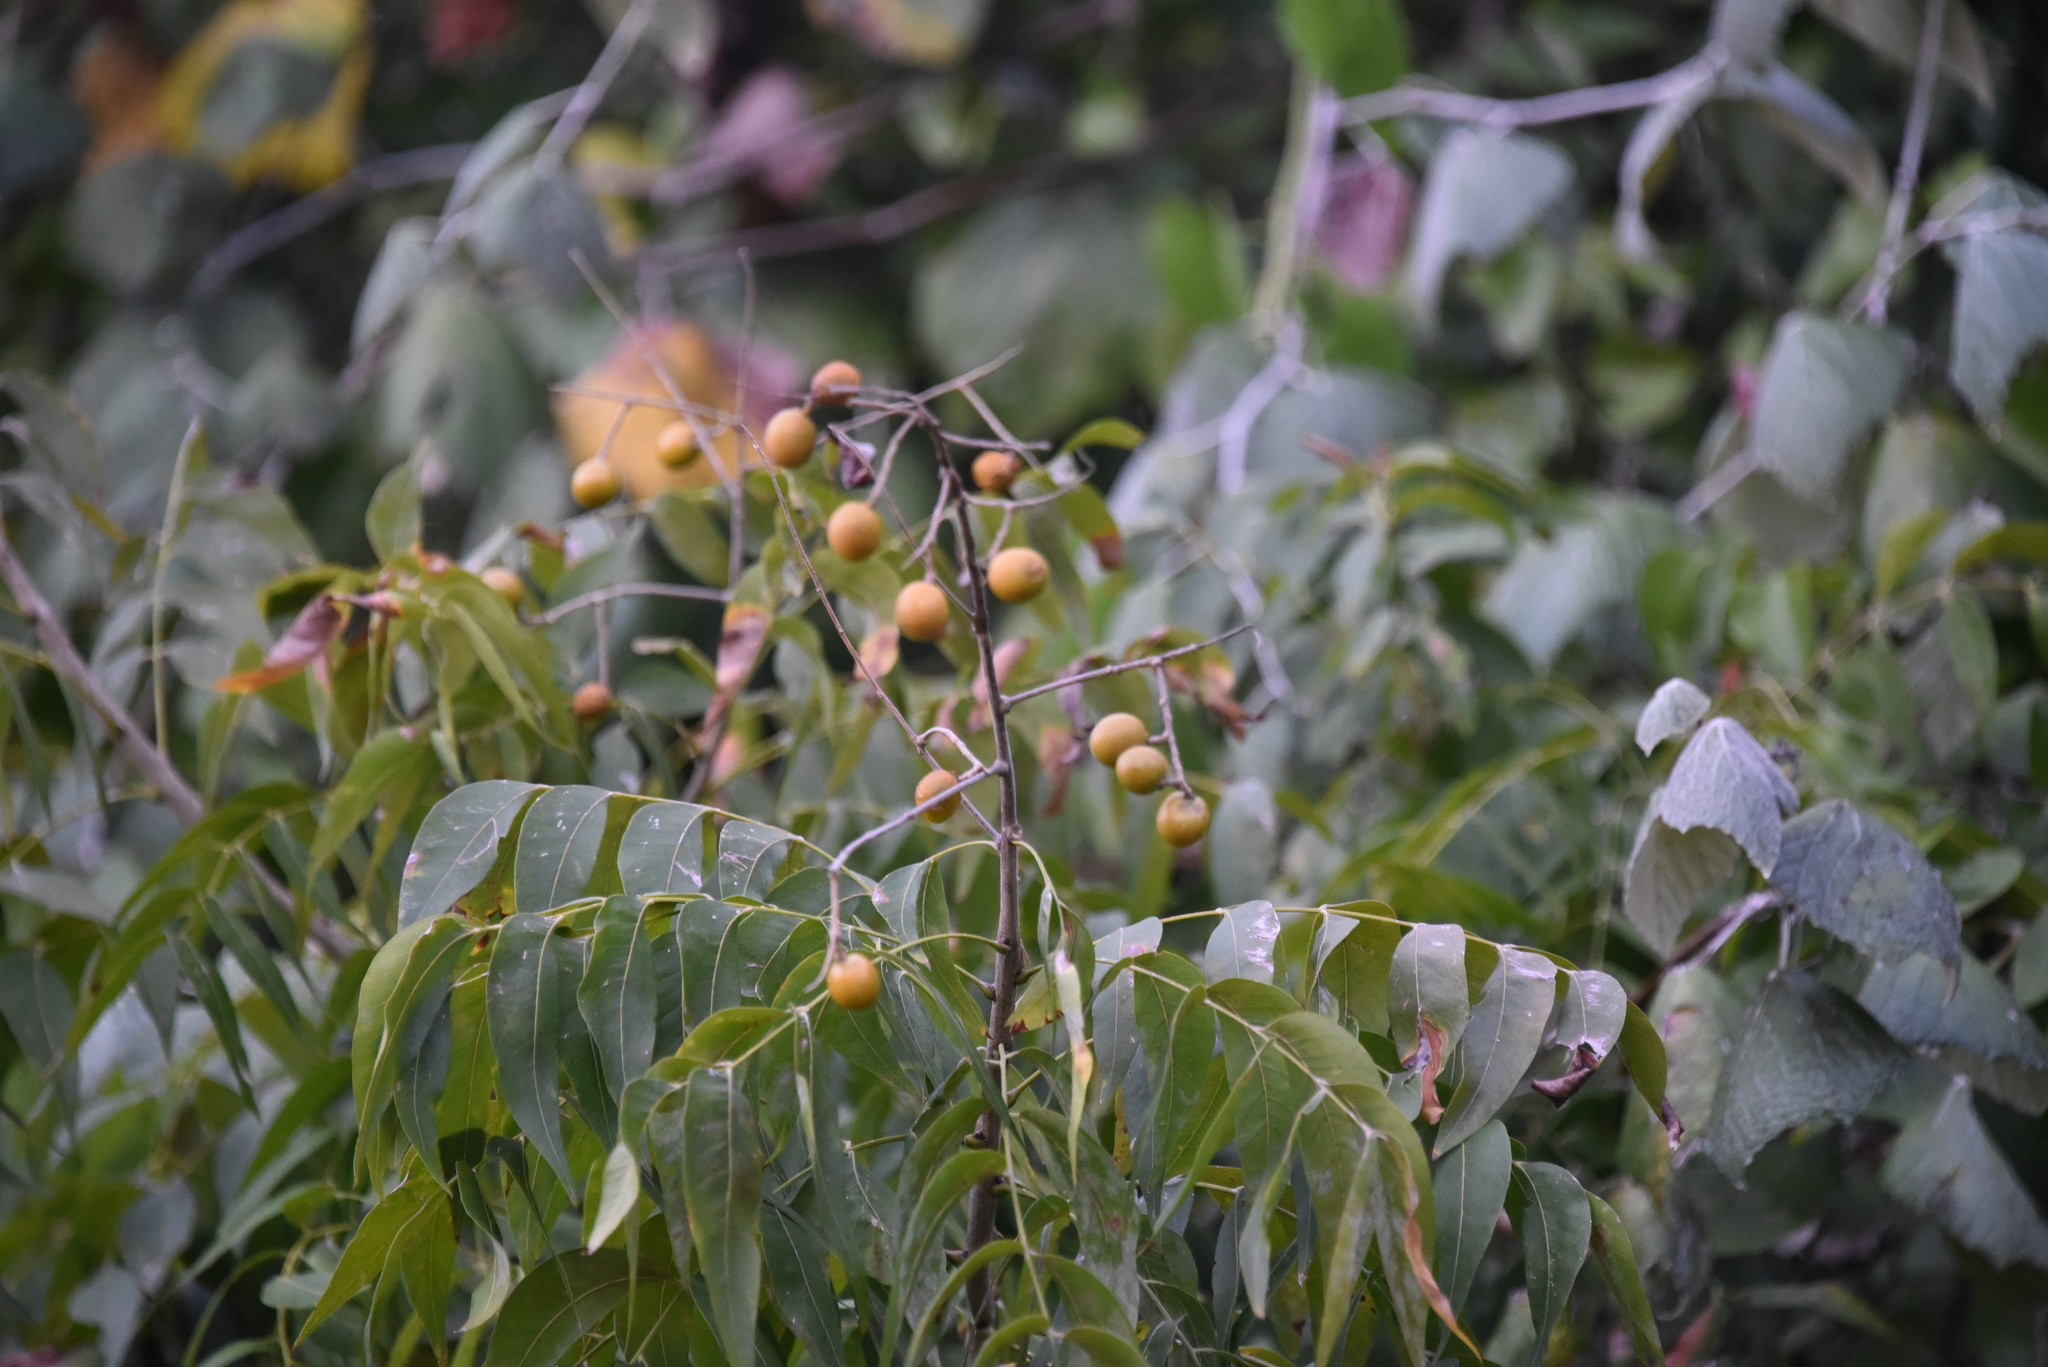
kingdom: Plantae
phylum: Tracheophyta
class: Magnoliopsida
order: Sapindales
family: Sapindaceae
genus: Sapindus
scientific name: Sapindus drummondii
